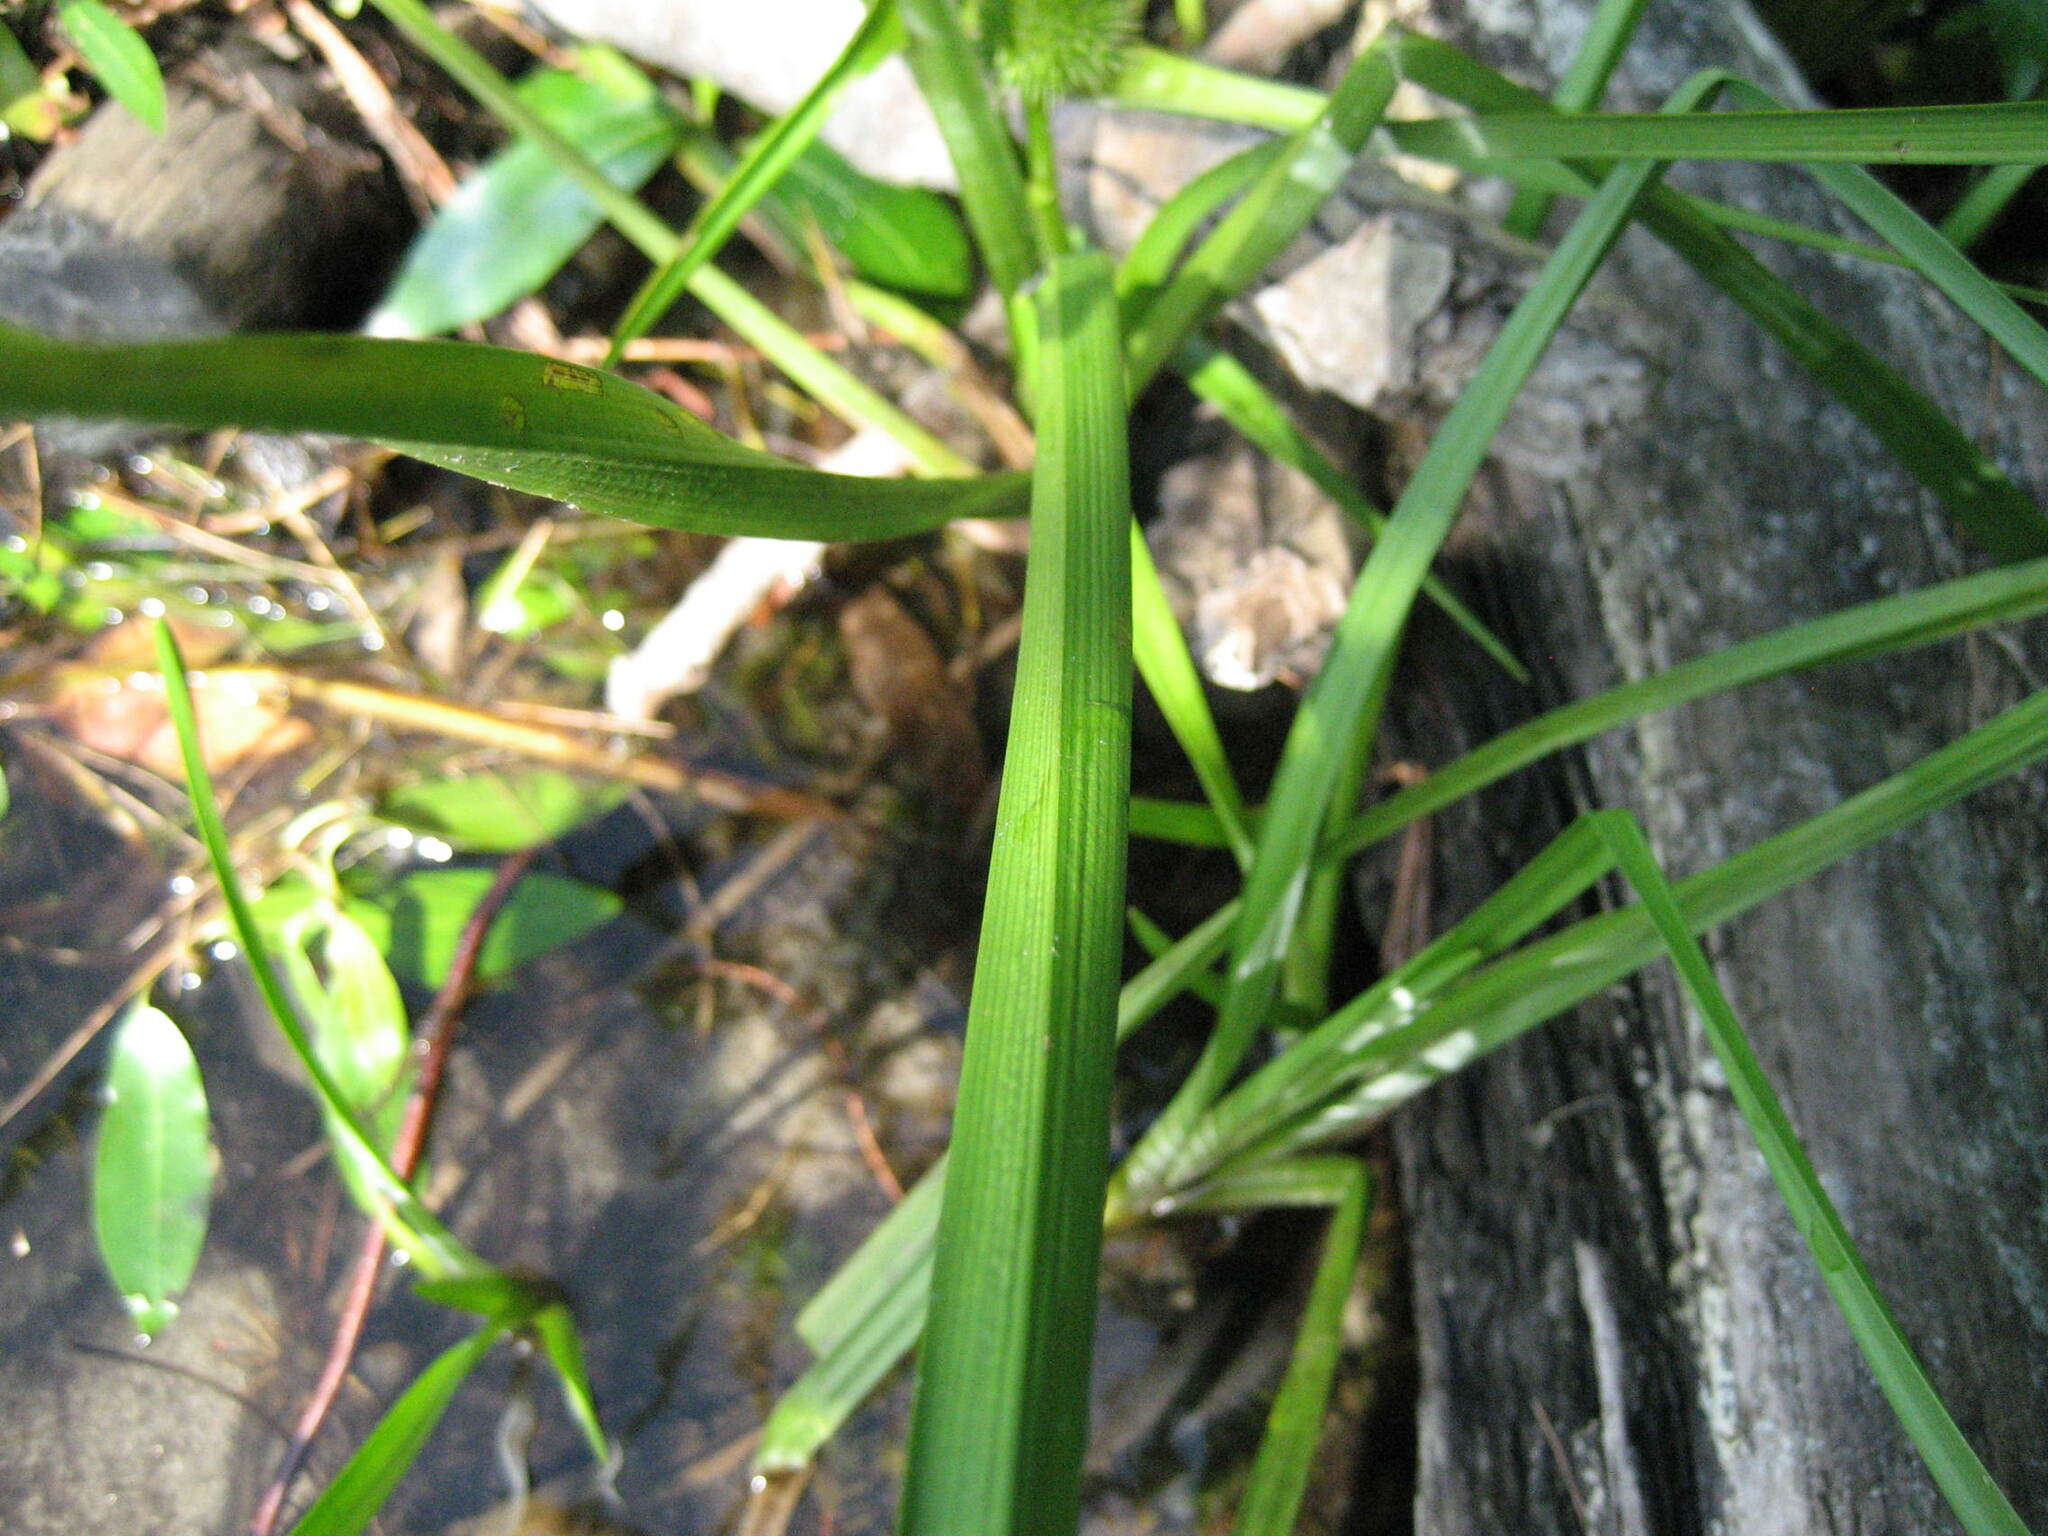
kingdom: Plantae
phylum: Tracheophyta
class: Liliopsida
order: Poales
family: Typhaceae
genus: Sparganium
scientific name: Sparganium americanum
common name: American burreed
